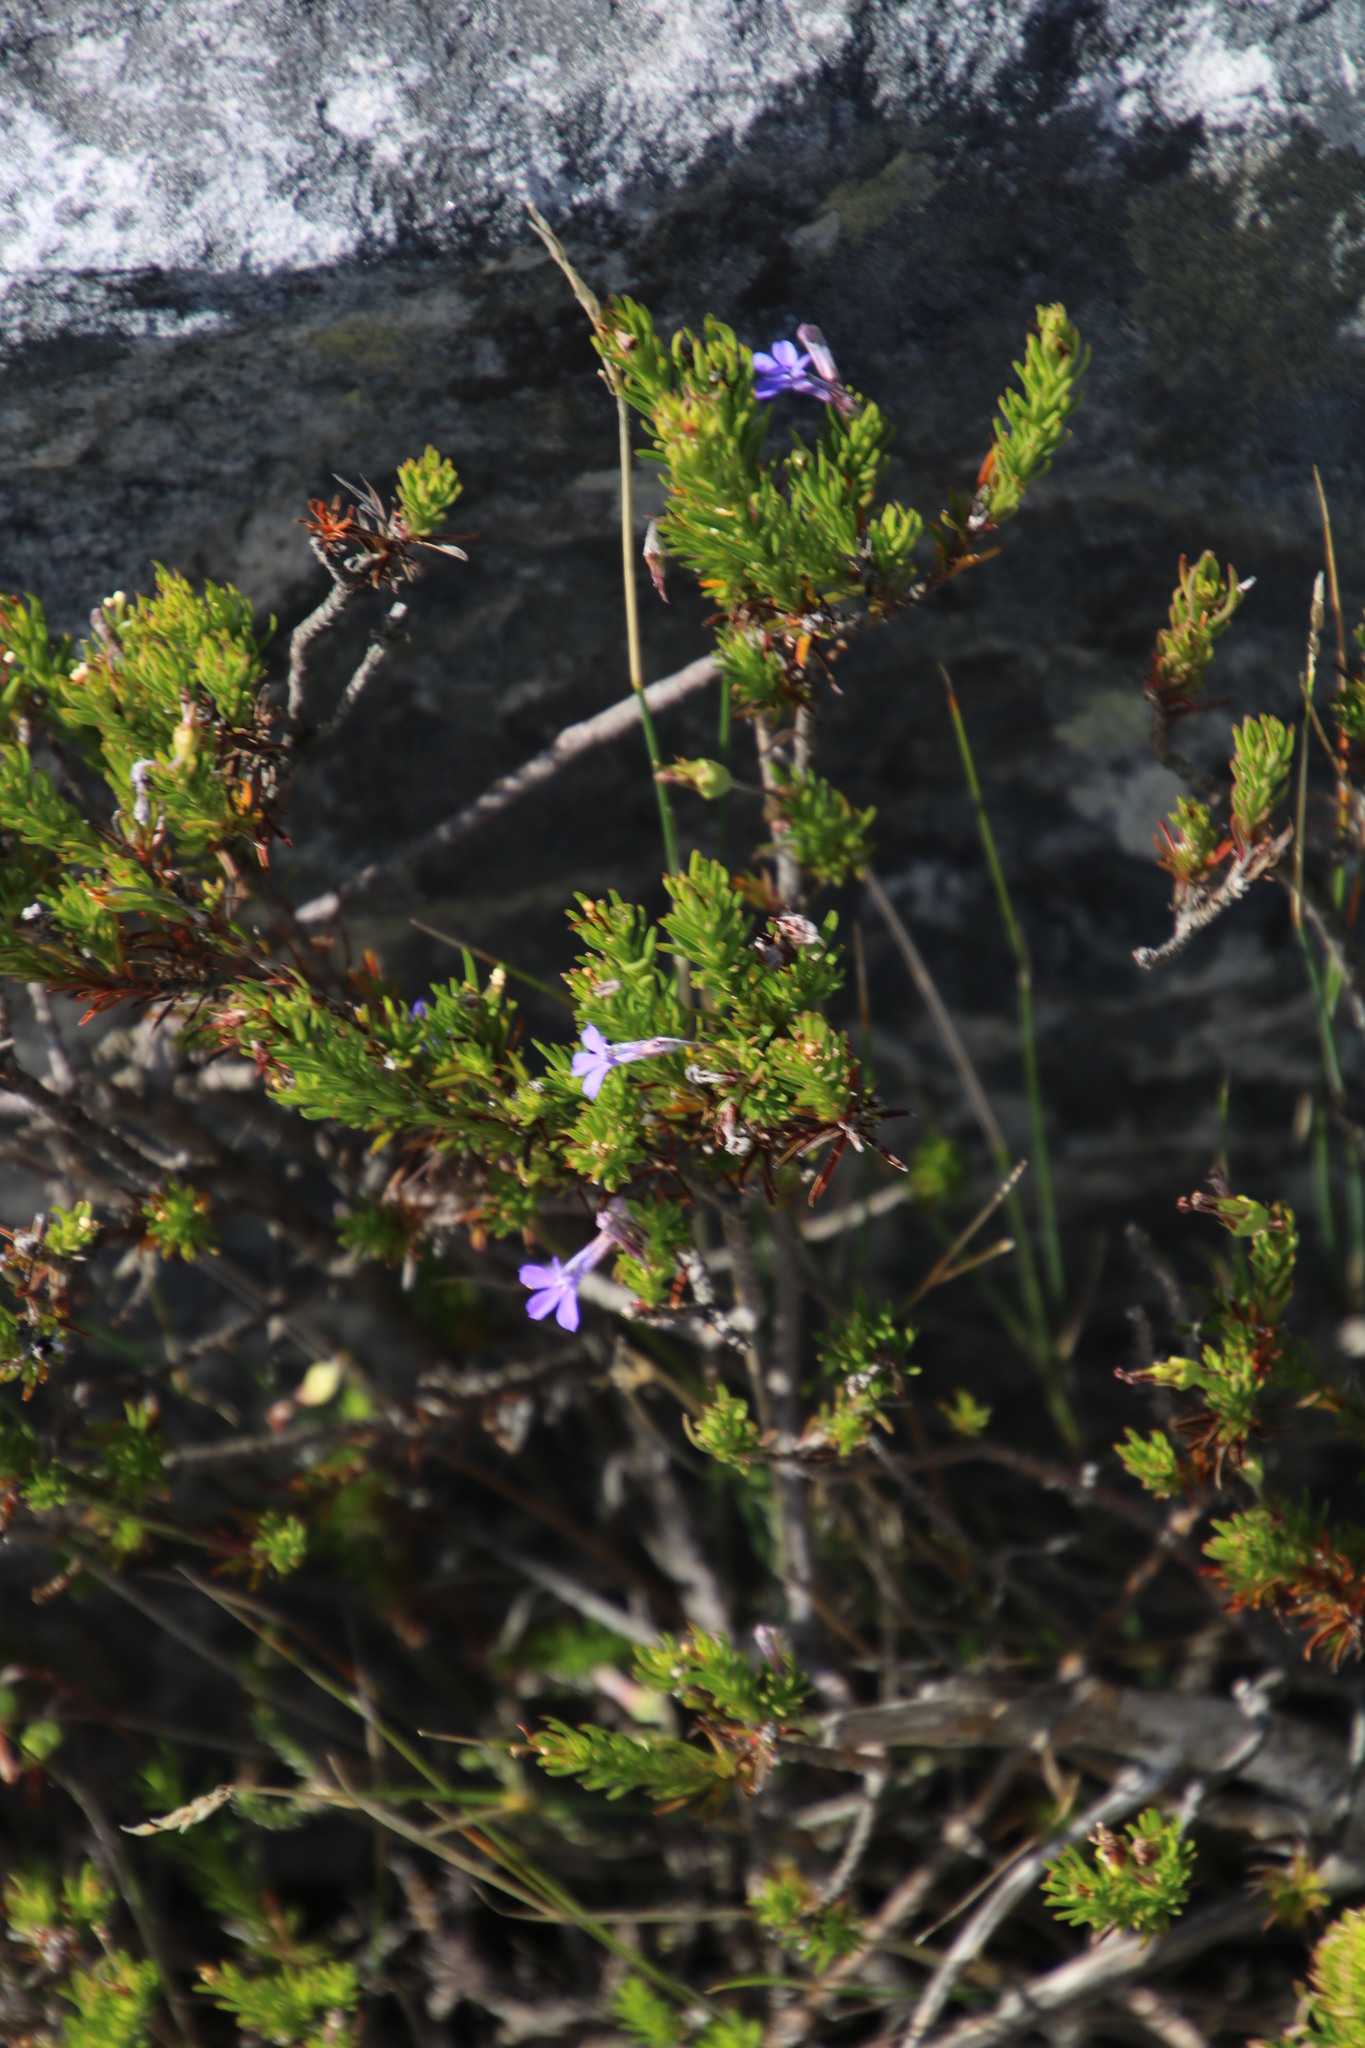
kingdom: Plantae
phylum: Tracheophyta
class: Magnoliopsida
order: Asterales
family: Campanulaceae
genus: Lobelia
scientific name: Lobelia pinifolia
